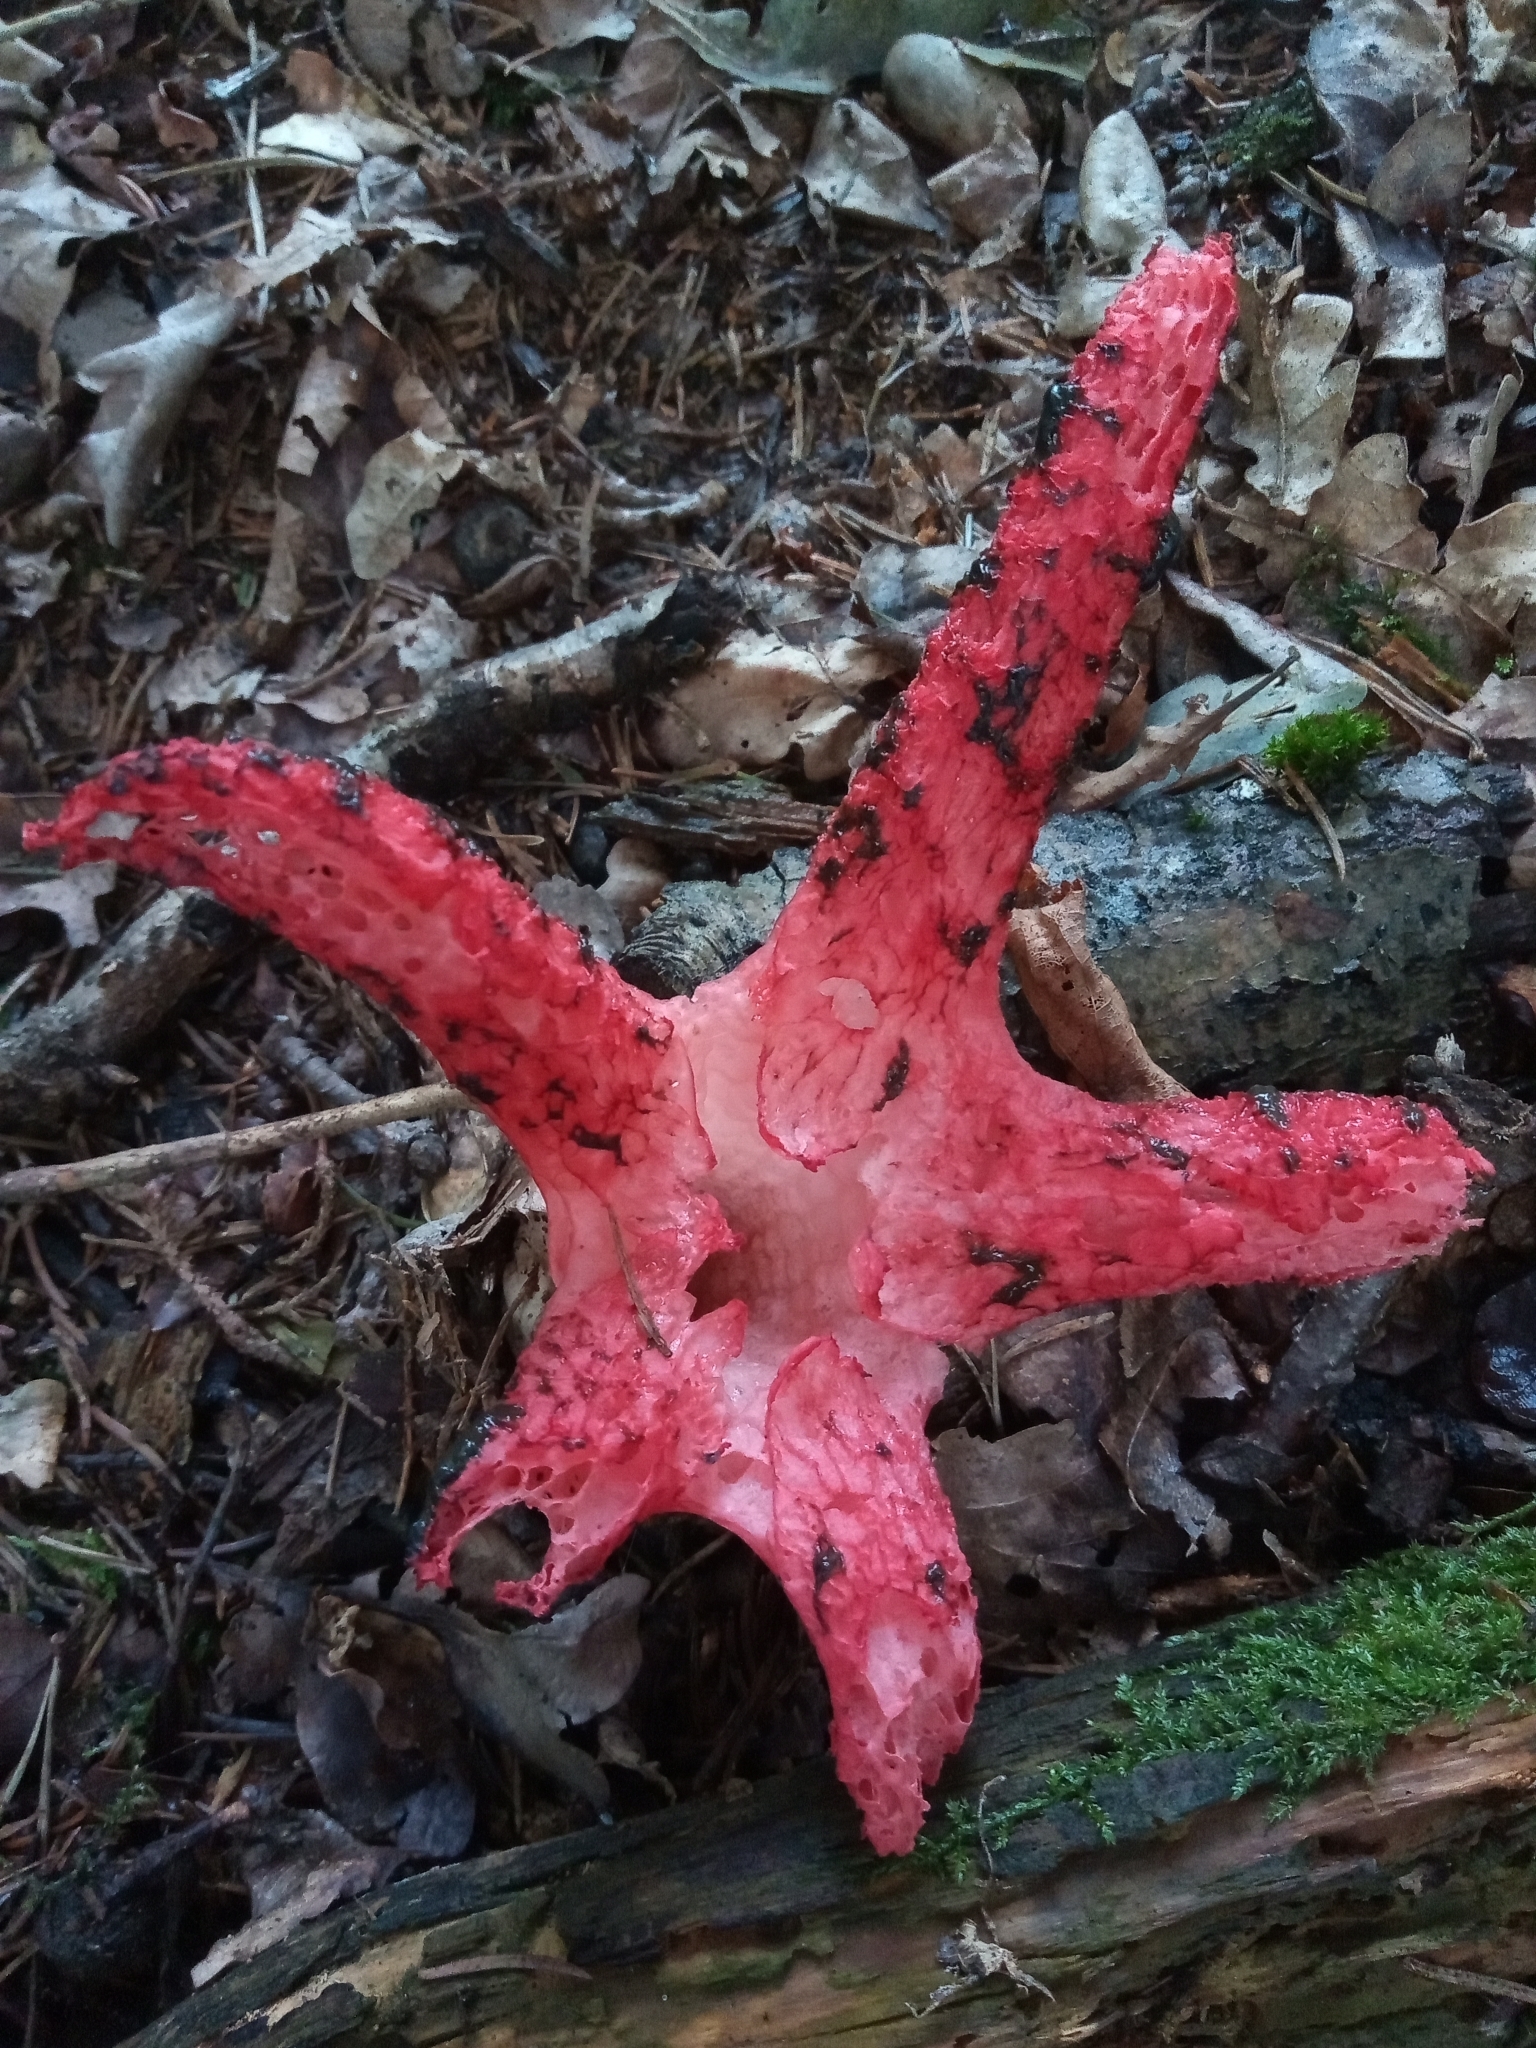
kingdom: Fungi
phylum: Basidiomycota
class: Agaricomycetes
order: Phallales
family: Phallaceae
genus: Clathrus
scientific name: Clathrus archeri
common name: Devil's fingers
